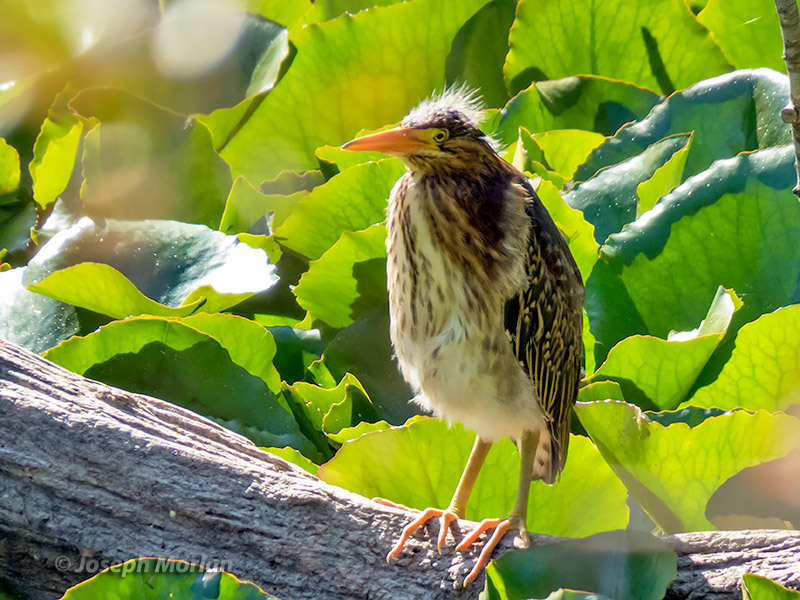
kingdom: Animalia
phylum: Chordata
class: Aves
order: Pelecaniformes
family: Ardeidae
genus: Butorides
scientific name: Butorides virescens
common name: Green heron
